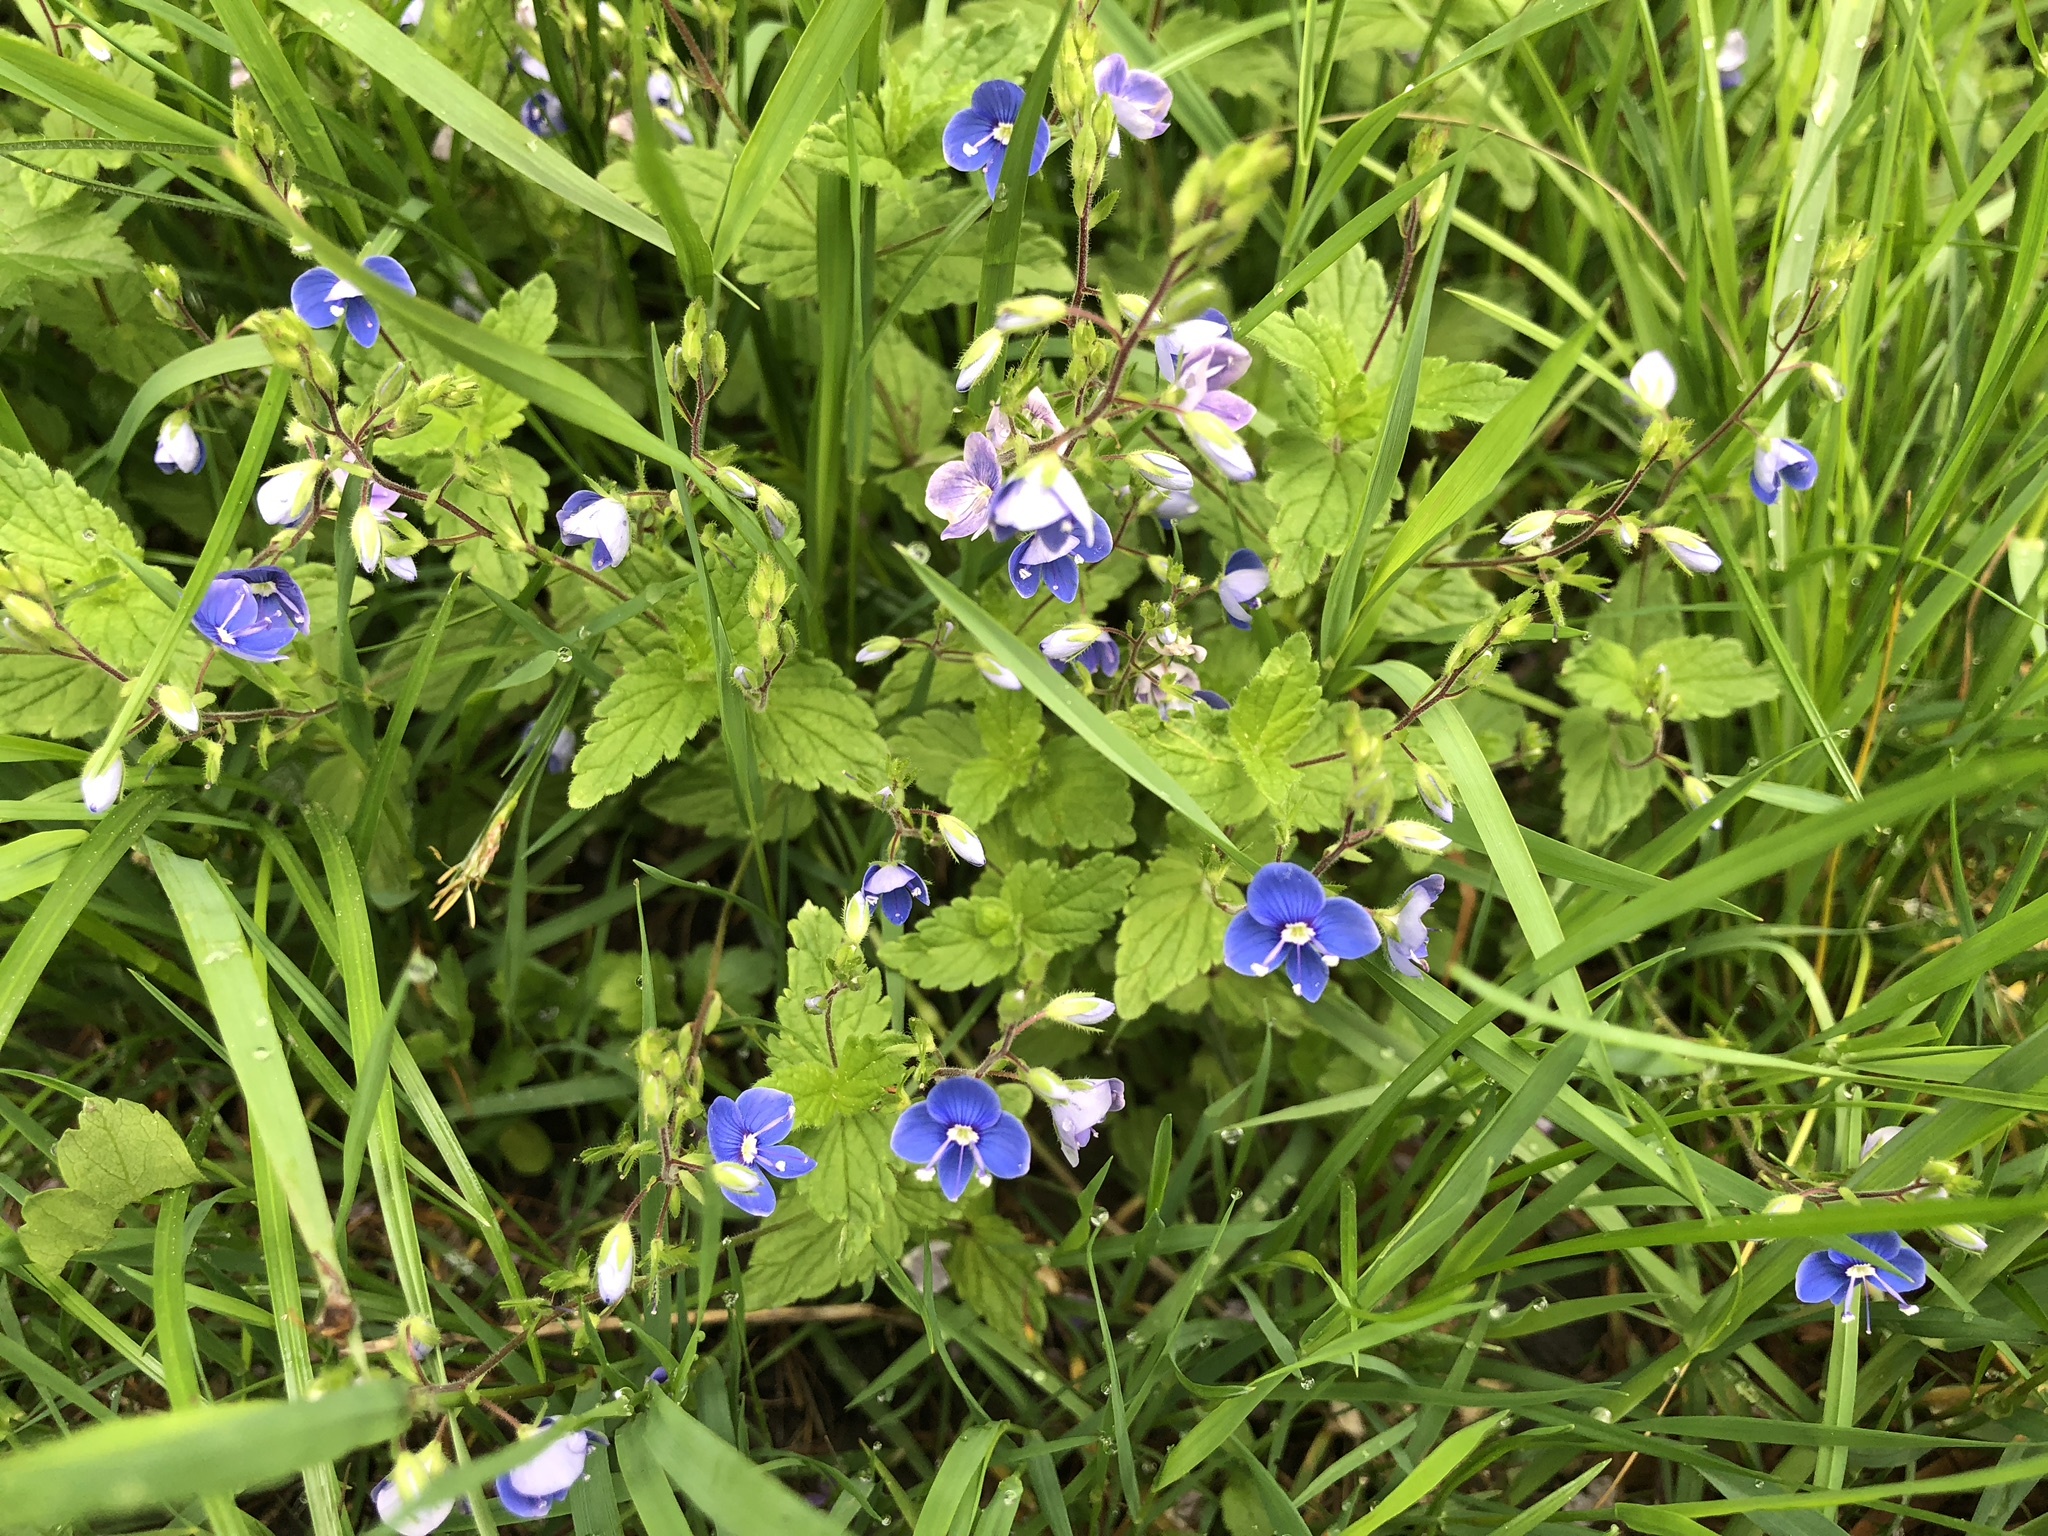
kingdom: Plantae
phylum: Tracheophyta
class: Magnoliopsida
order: Lamiales
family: Plantaginaceae
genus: Veronica
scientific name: Veronica chamaedrys
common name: Germander speedwell
